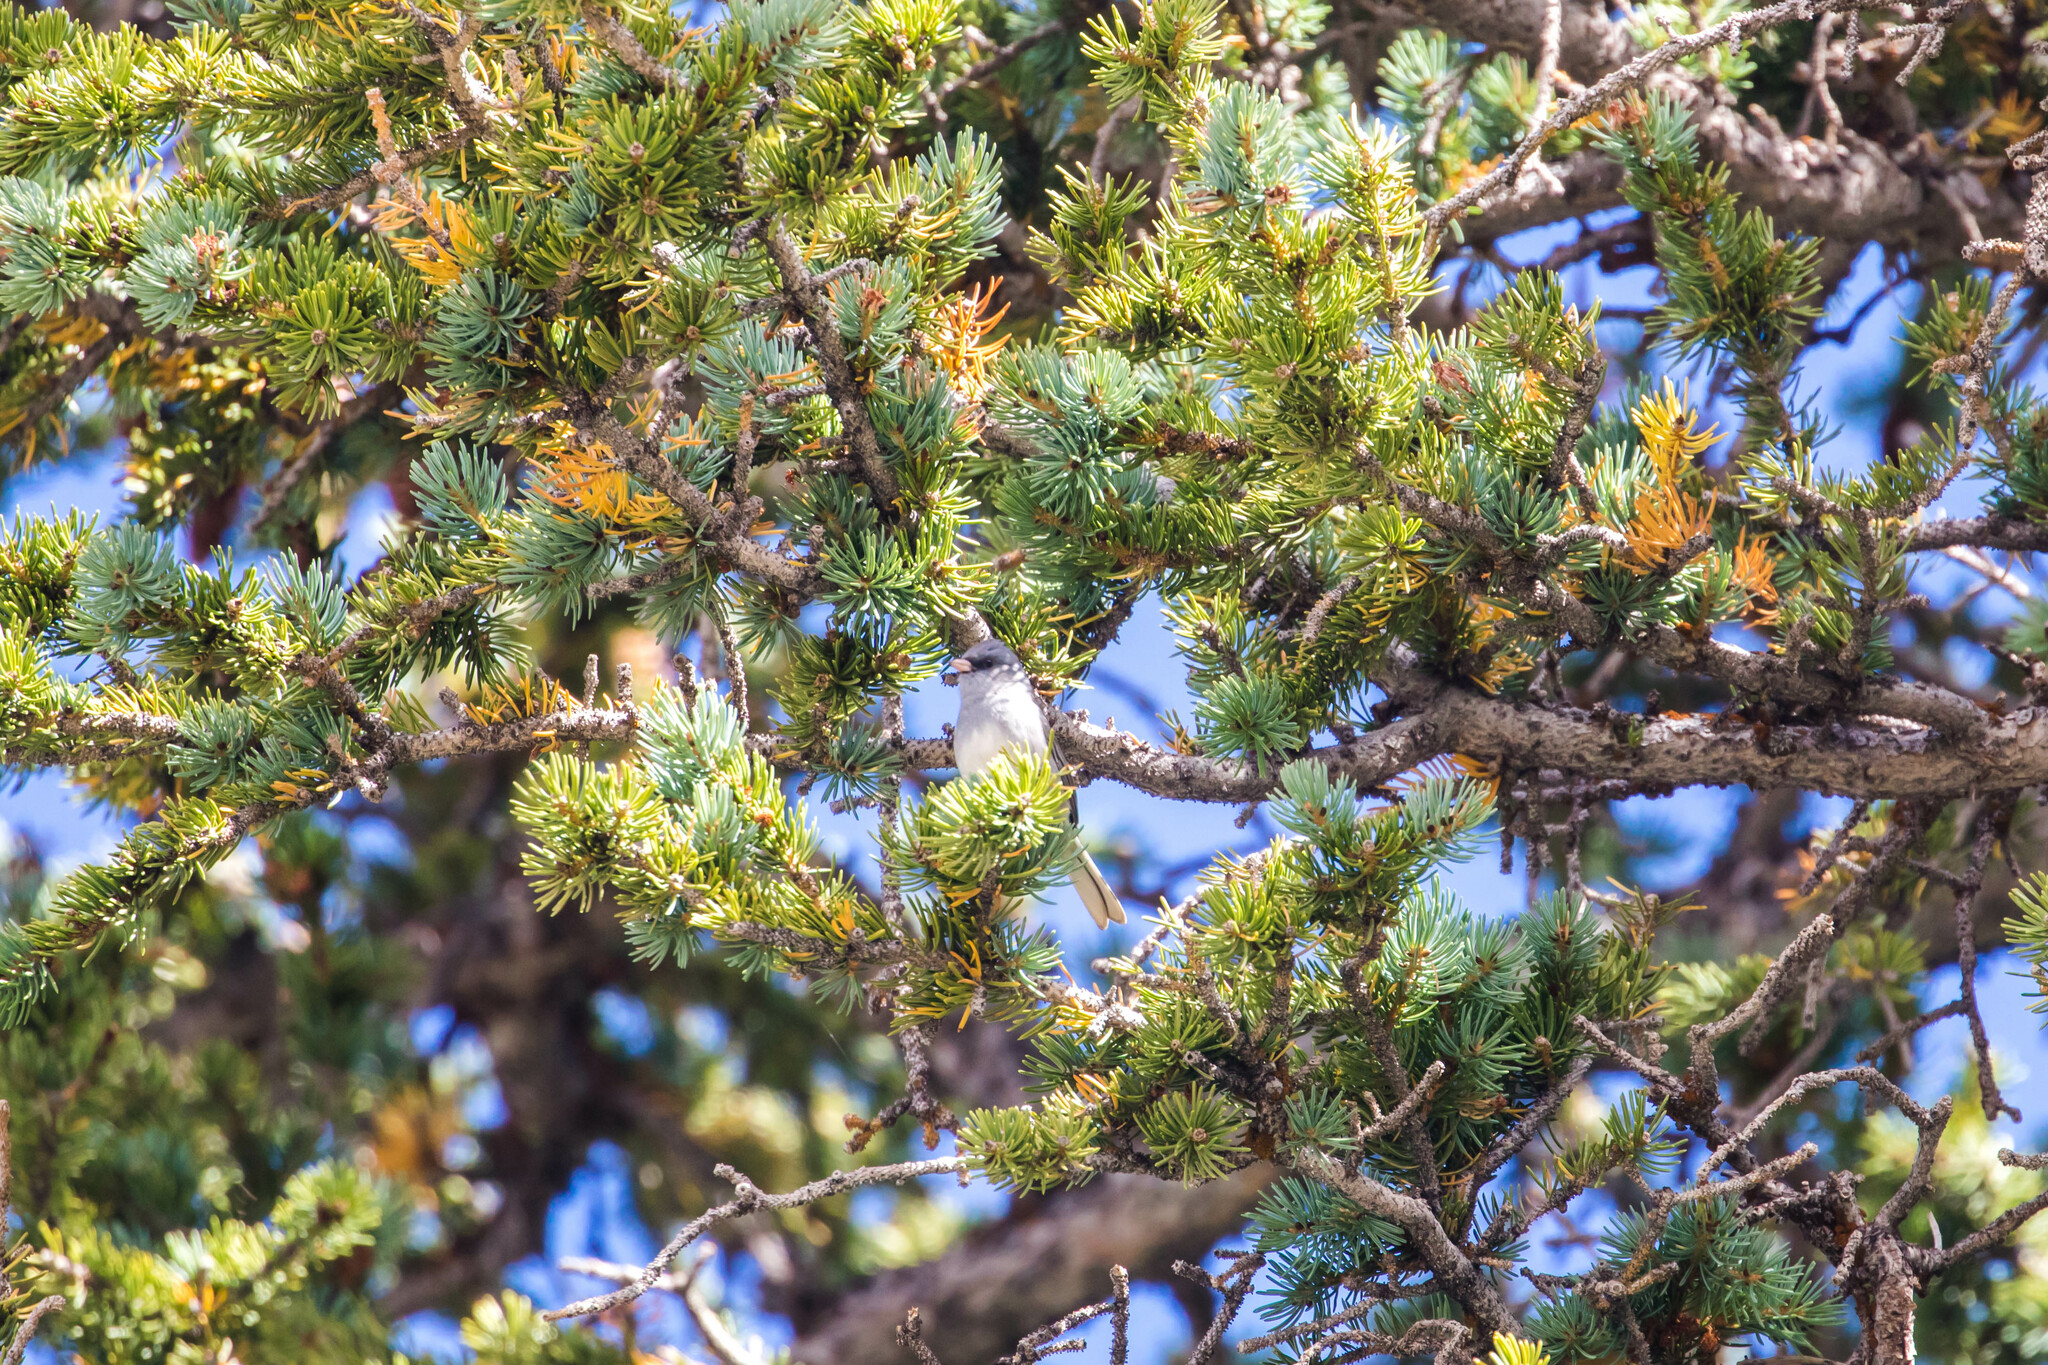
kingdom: Animalia
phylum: Chordata
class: Aves
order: Passeriformes
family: Passerellidae
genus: Junco
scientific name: Junco hyemalis
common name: Dark-eyed junco
